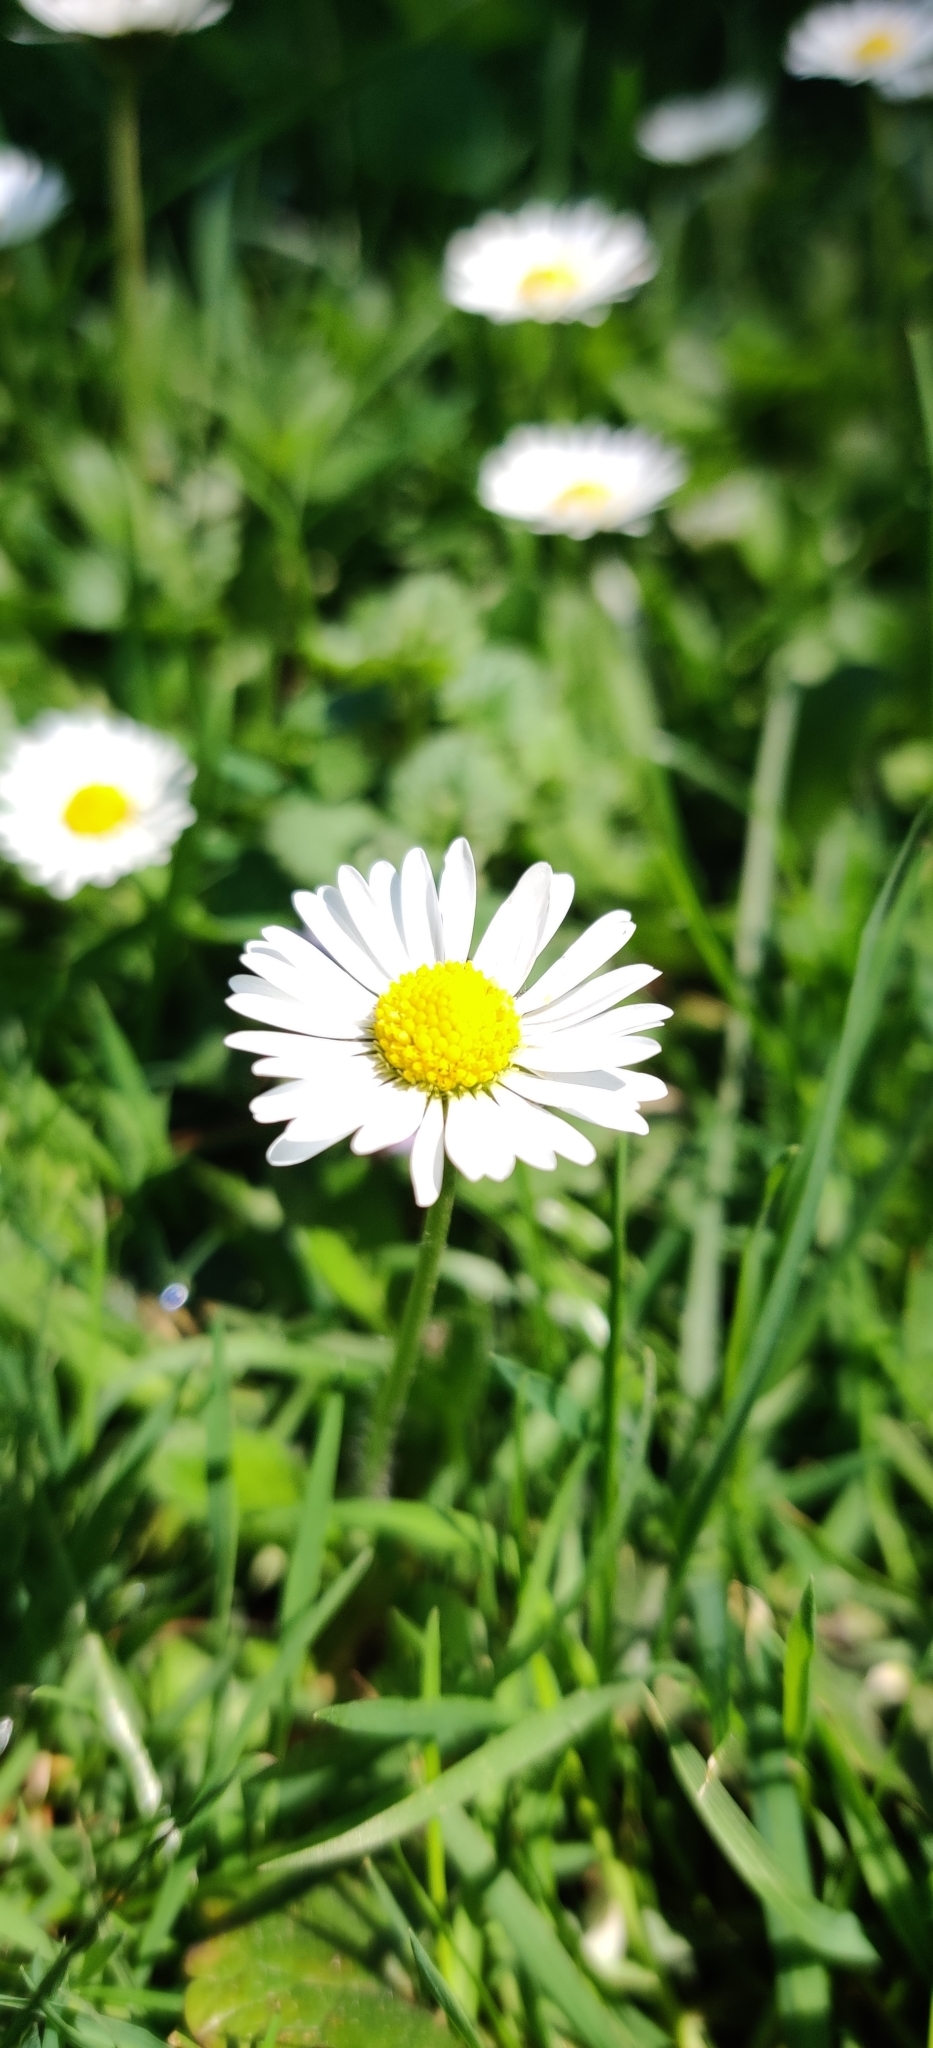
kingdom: Plantae
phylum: Tracheophyta
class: Magnoliopsida
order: Asterales
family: Asteraceae
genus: Bellis
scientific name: Bellis perennis
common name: Lawndaisy
